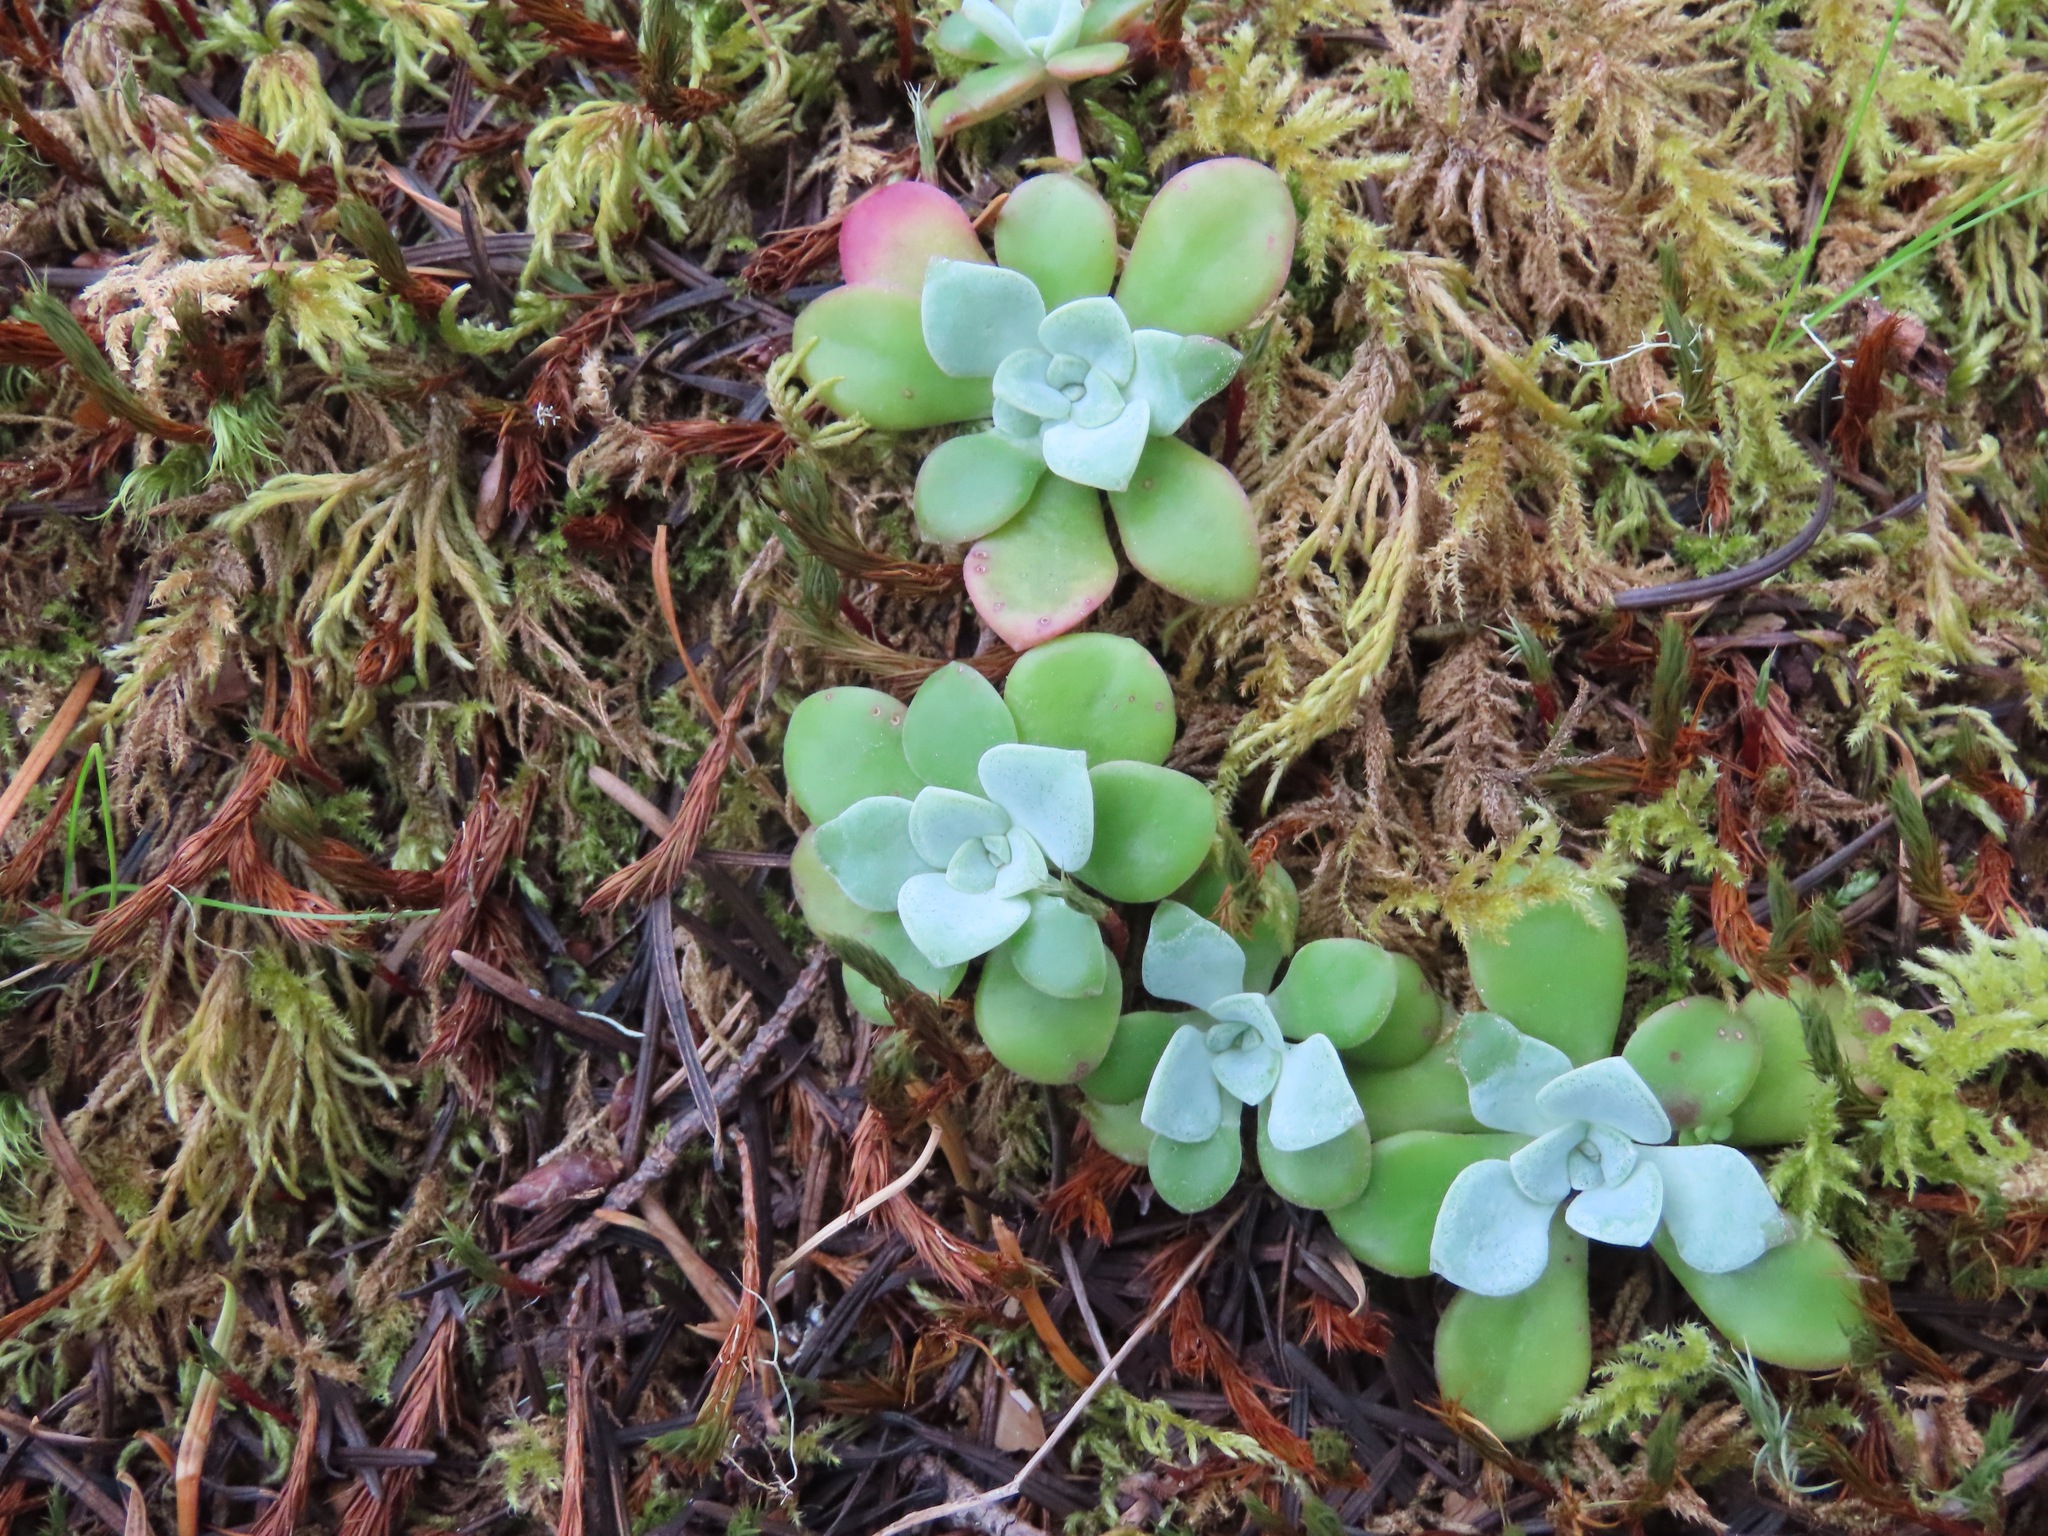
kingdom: Plantae
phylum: Tracheophyta
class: Magnoliopsida
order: Saxifragales
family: Crassulaceae
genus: Sedum
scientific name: Sedum spathulifolium
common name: Colorado stonecrop
